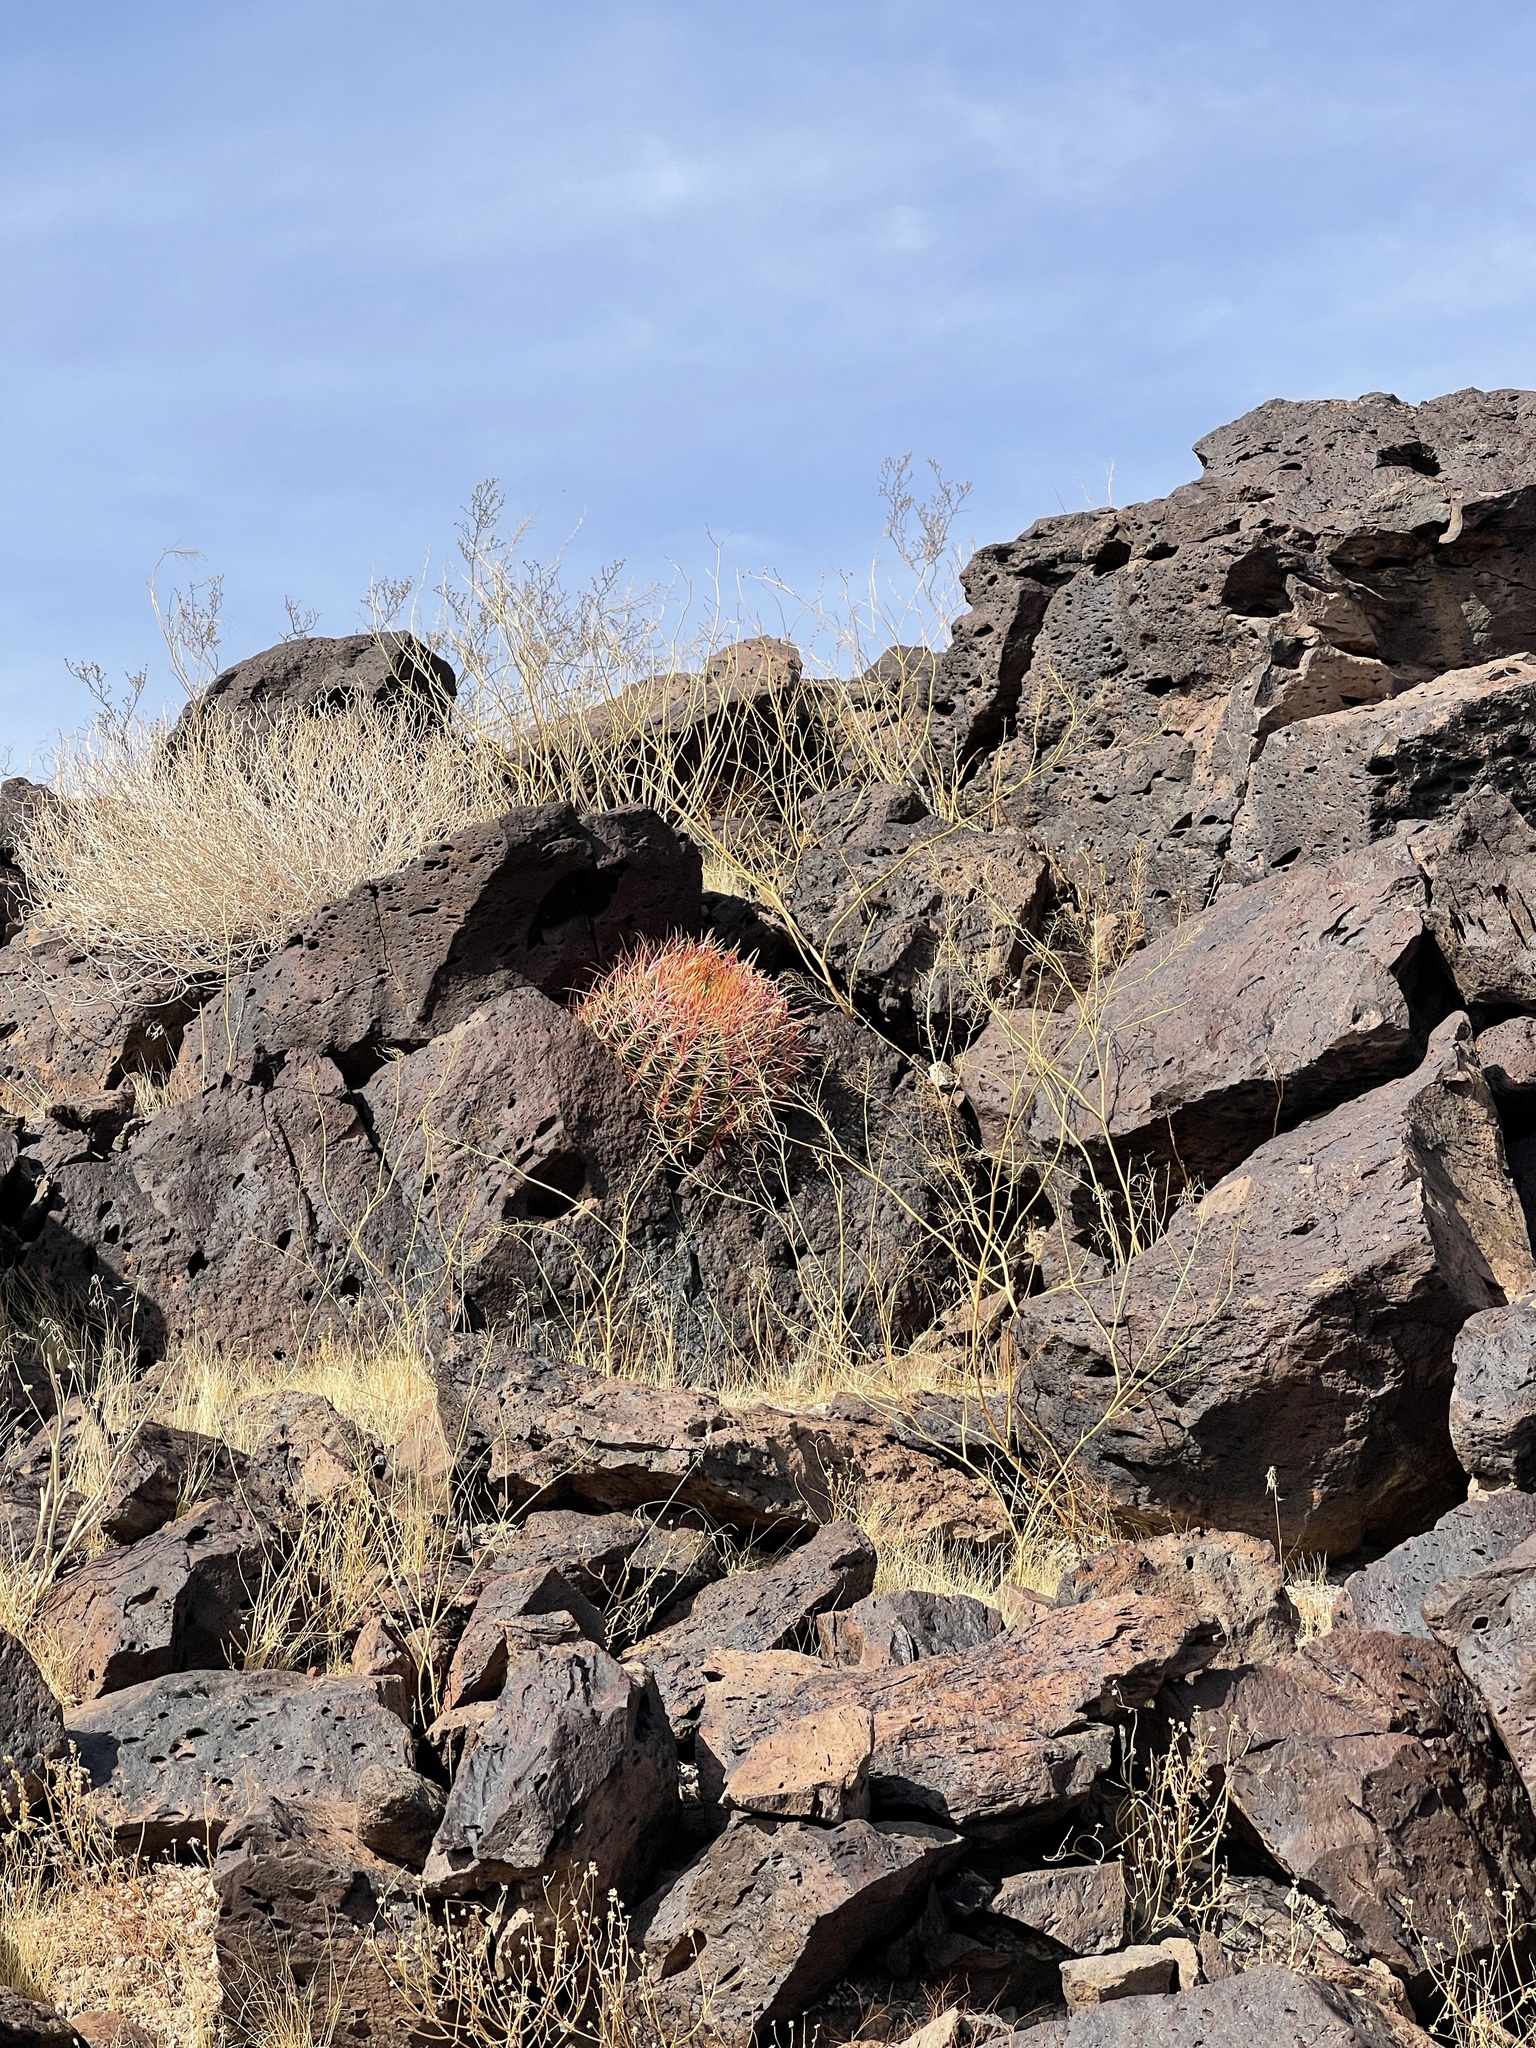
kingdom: Plantae
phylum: Tracheophyta
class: Magnoliopsida
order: Caryophyllales
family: Cactaceae
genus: Ferocactus
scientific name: Ferocactus cylindraceus
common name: California barrel cactus
